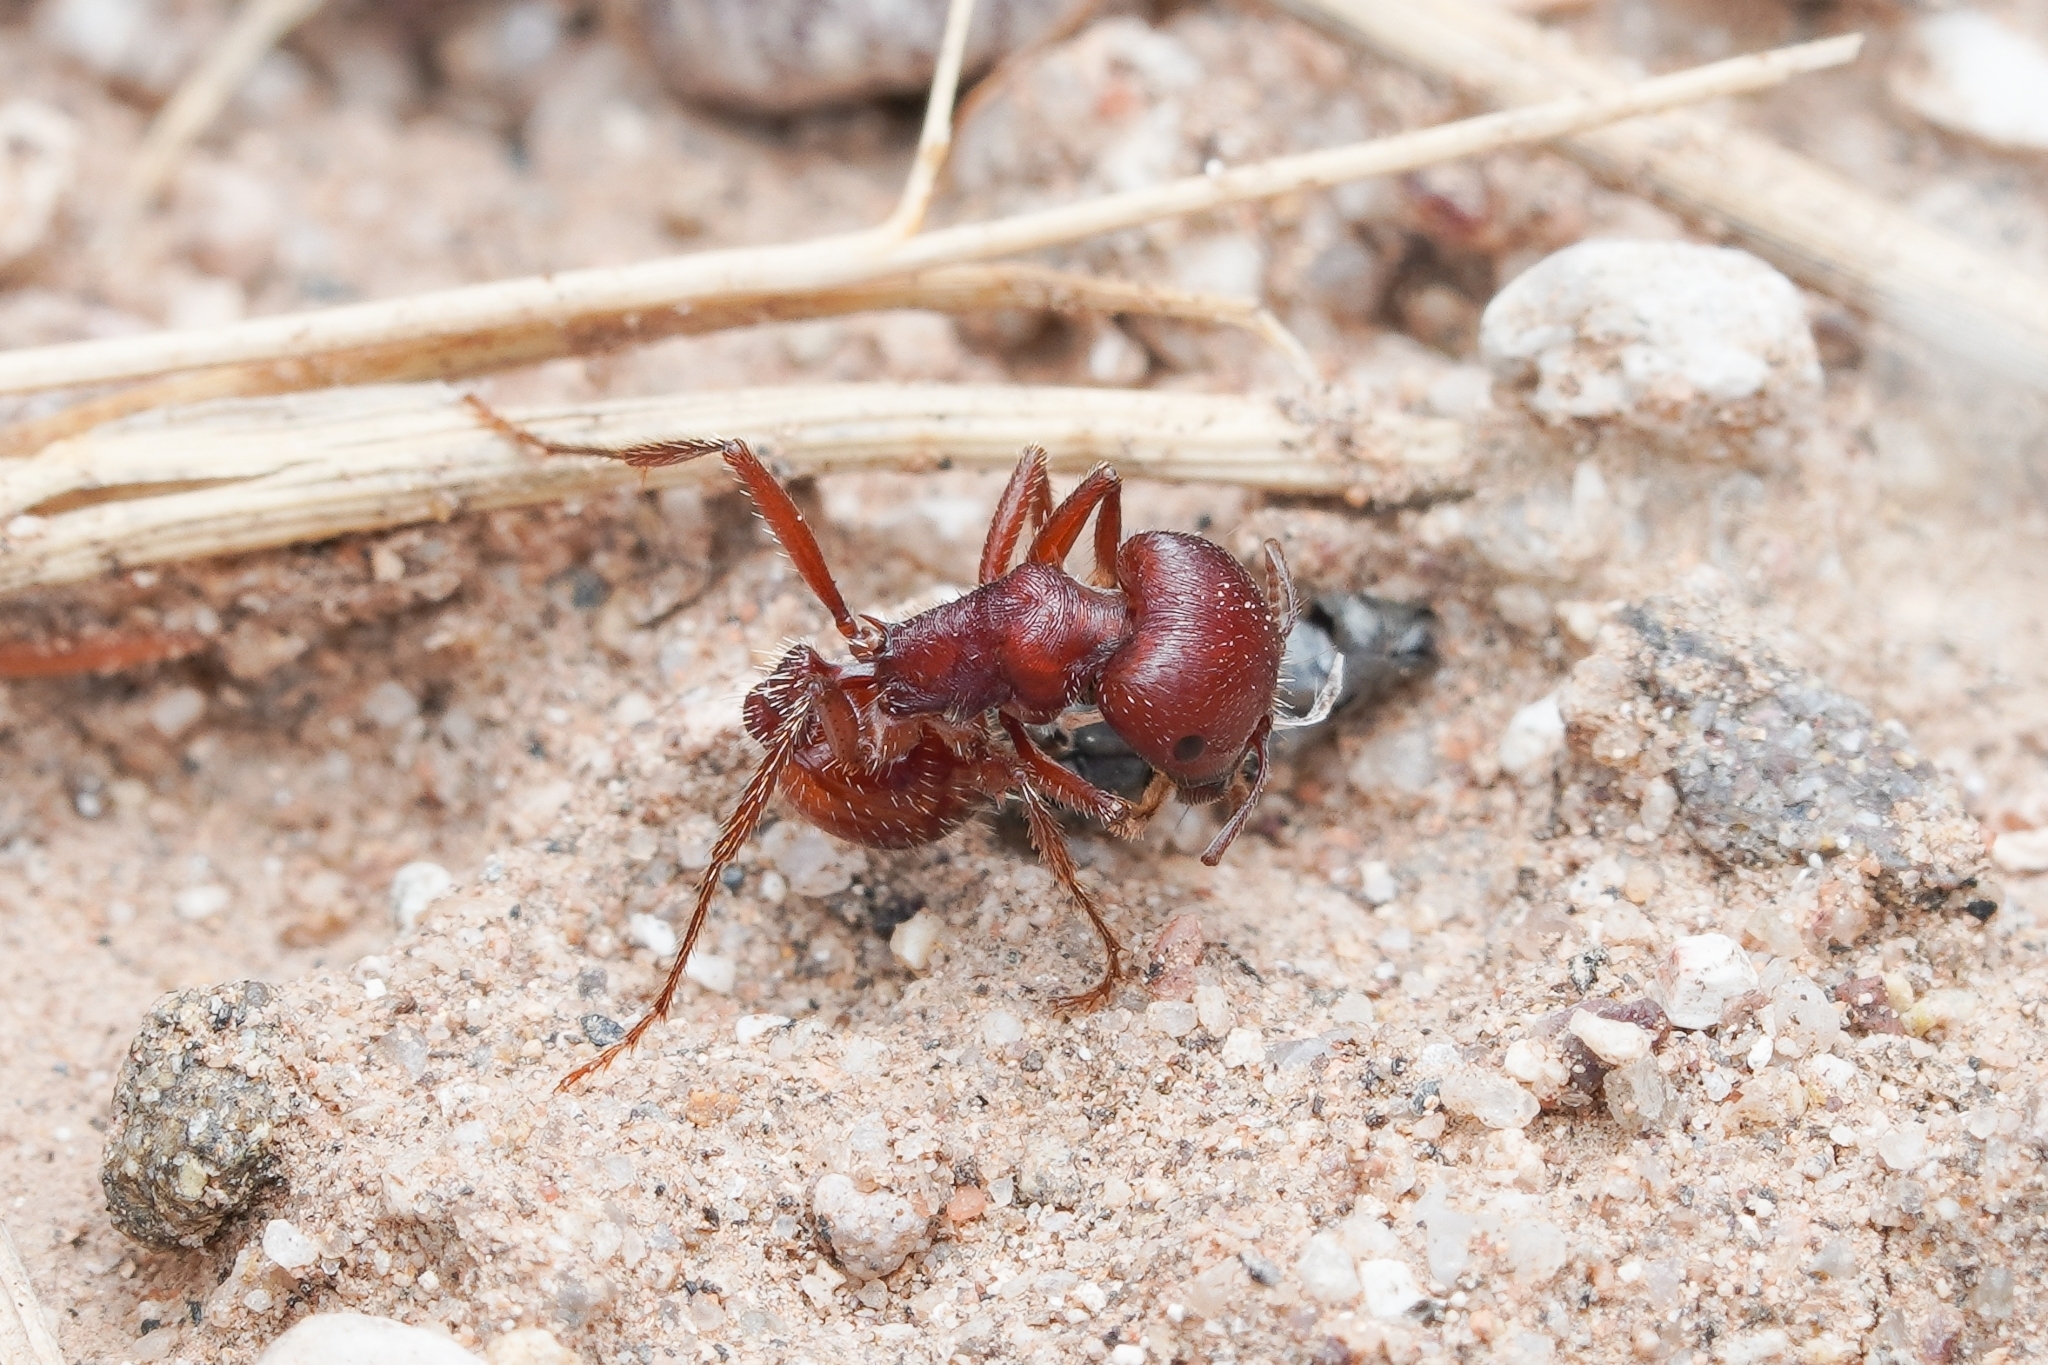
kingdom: Animalia
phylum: Arthropoda
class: Insecta
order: Hymenoptera
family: Formicidae
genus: Pogonomyrmex
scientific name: Pogonomyrmex barbatus
